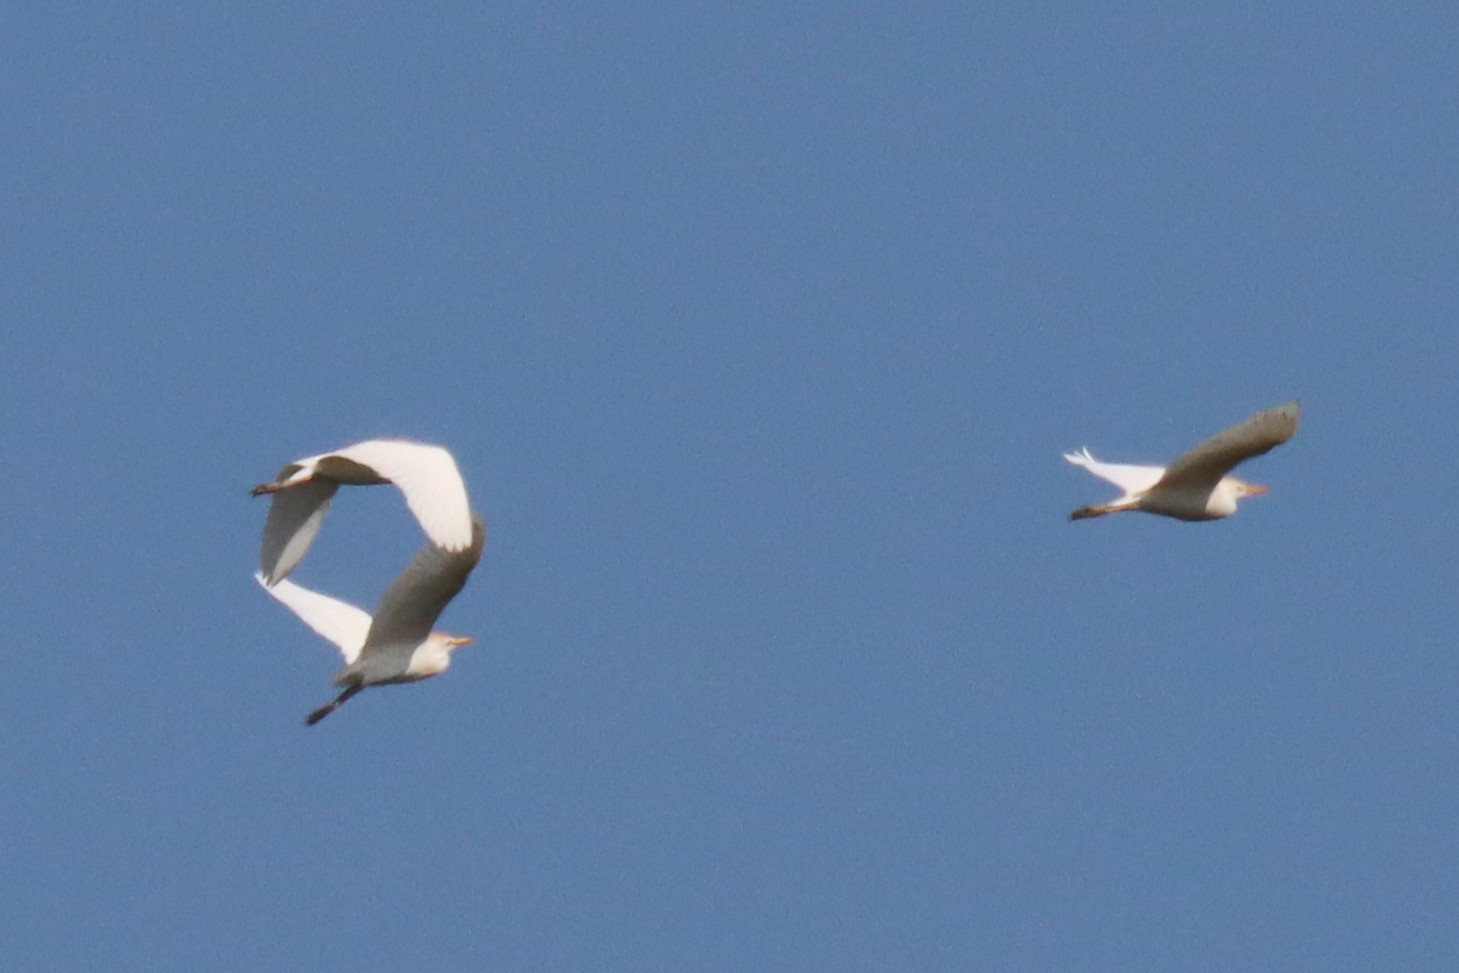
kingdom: Animalia
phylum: Chordata
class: Aves
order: Pelecaniformes
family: Ardeidae
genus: Bubulcus
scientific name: Bubulcus ibis
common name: Cattle egret
